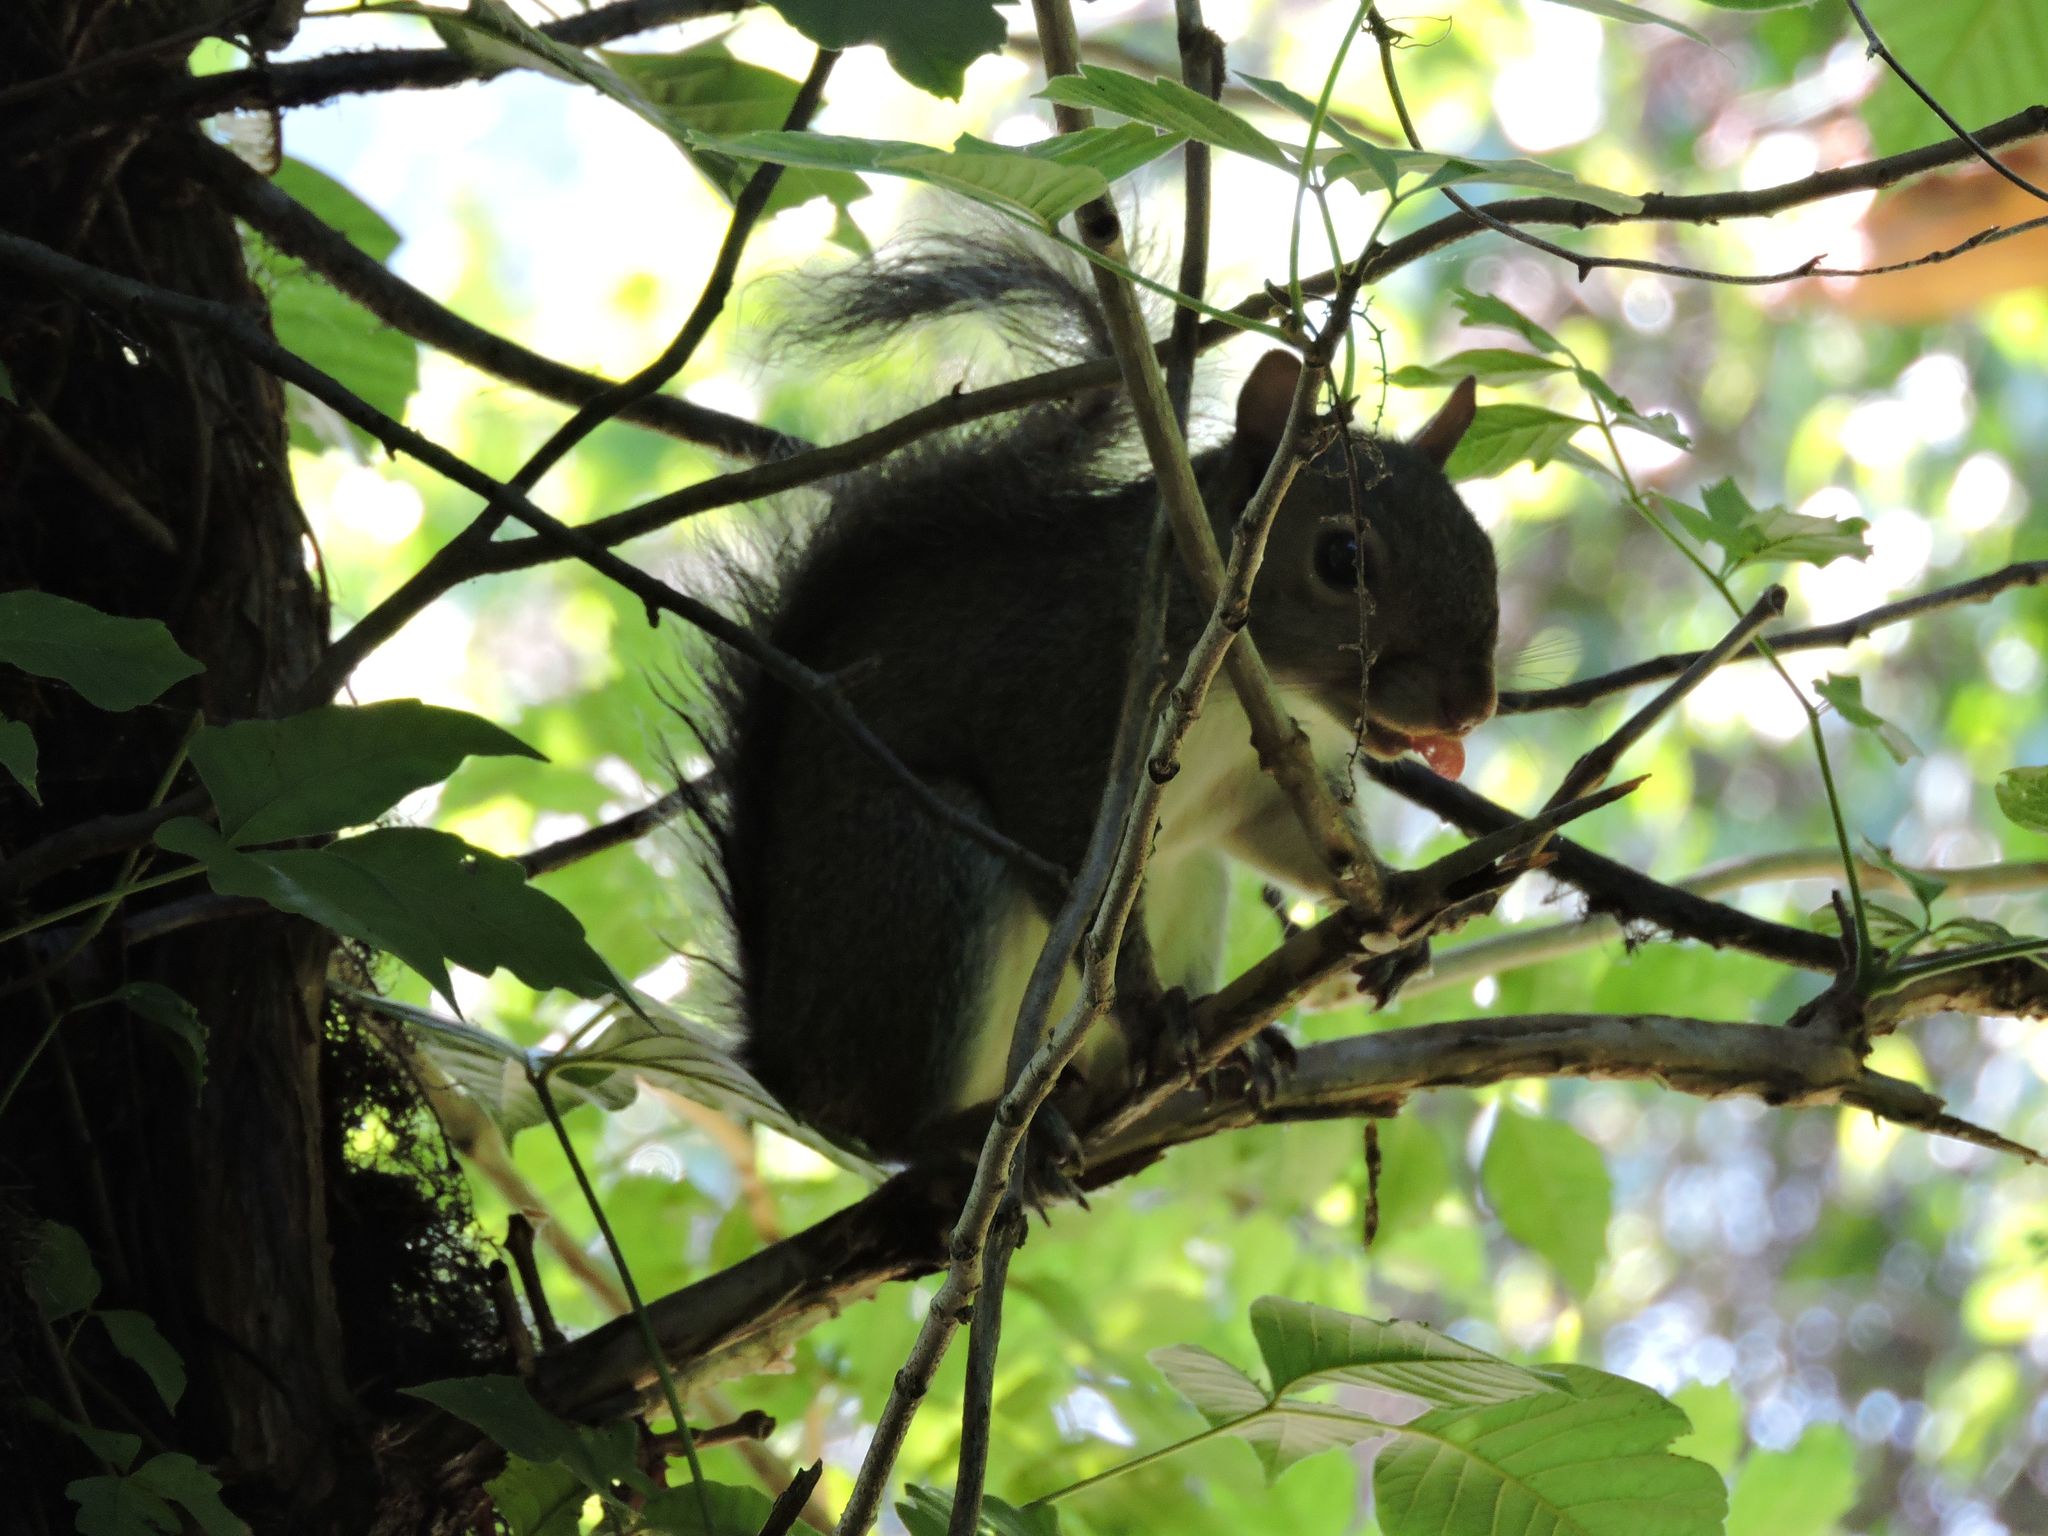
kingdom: Animalia
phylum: Chordata
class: Mammalia
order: Rodentia
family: Sciuridae
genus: Sciurus
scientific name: Sciurus carolinensis
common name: Eastern gray squirrel
